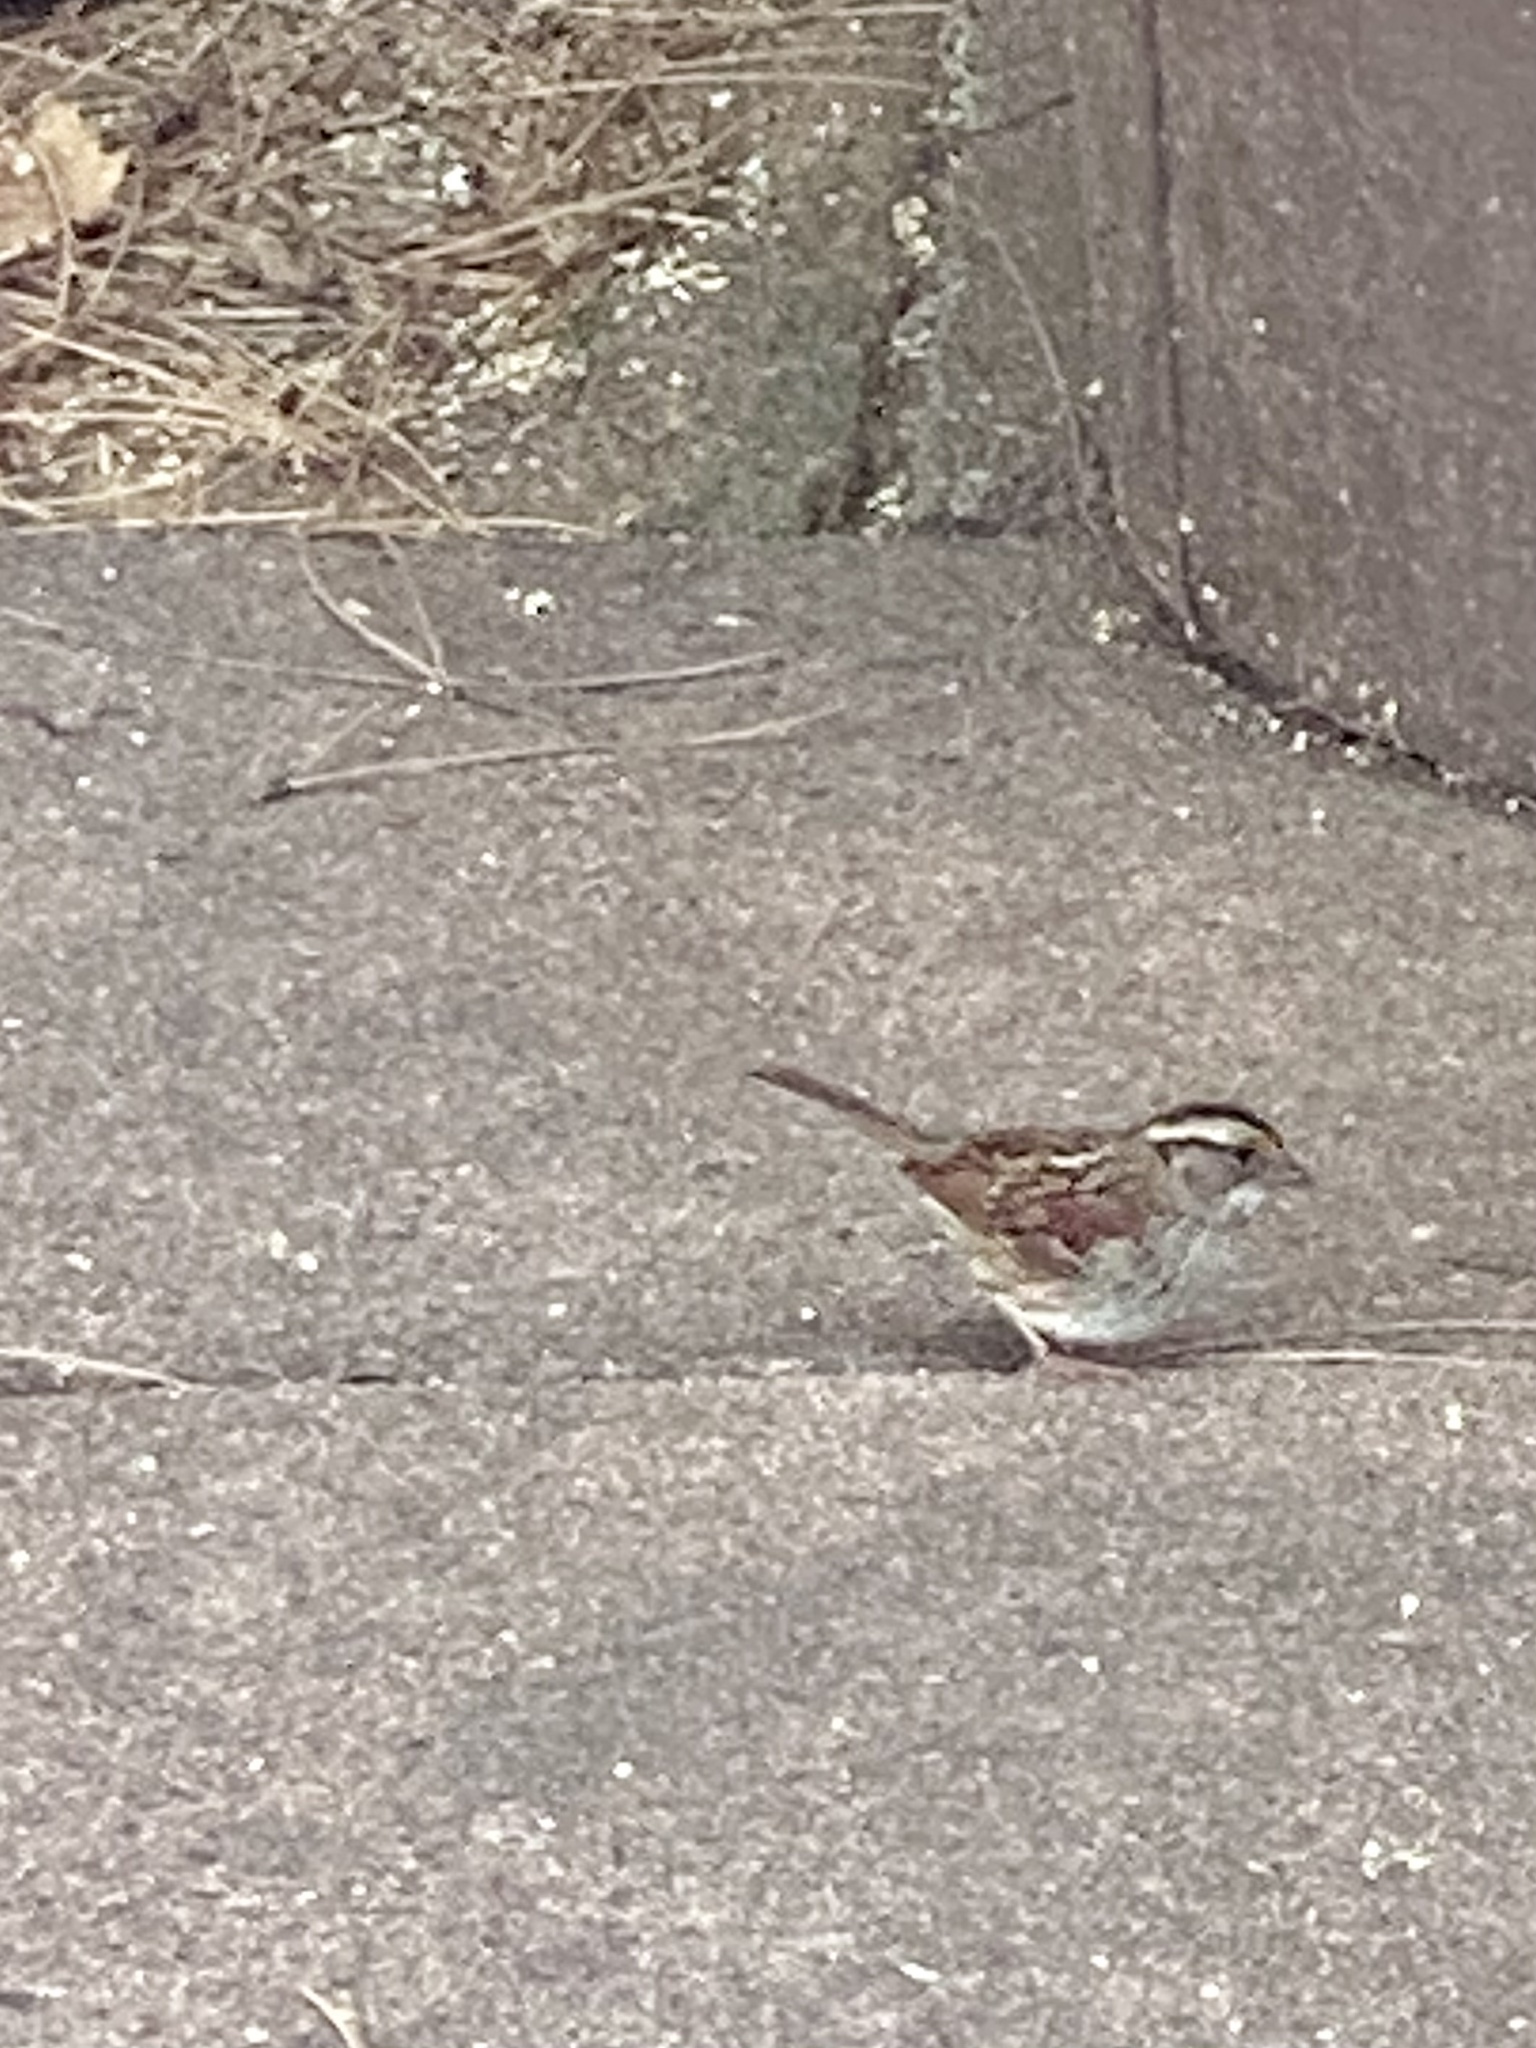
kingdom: Animalia
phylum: Chordata
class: Aves
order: Passeriformes
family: Passerellidae
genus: Zonotrichia
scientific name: Zonotrichia albicollis
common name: White-throated sparrow
